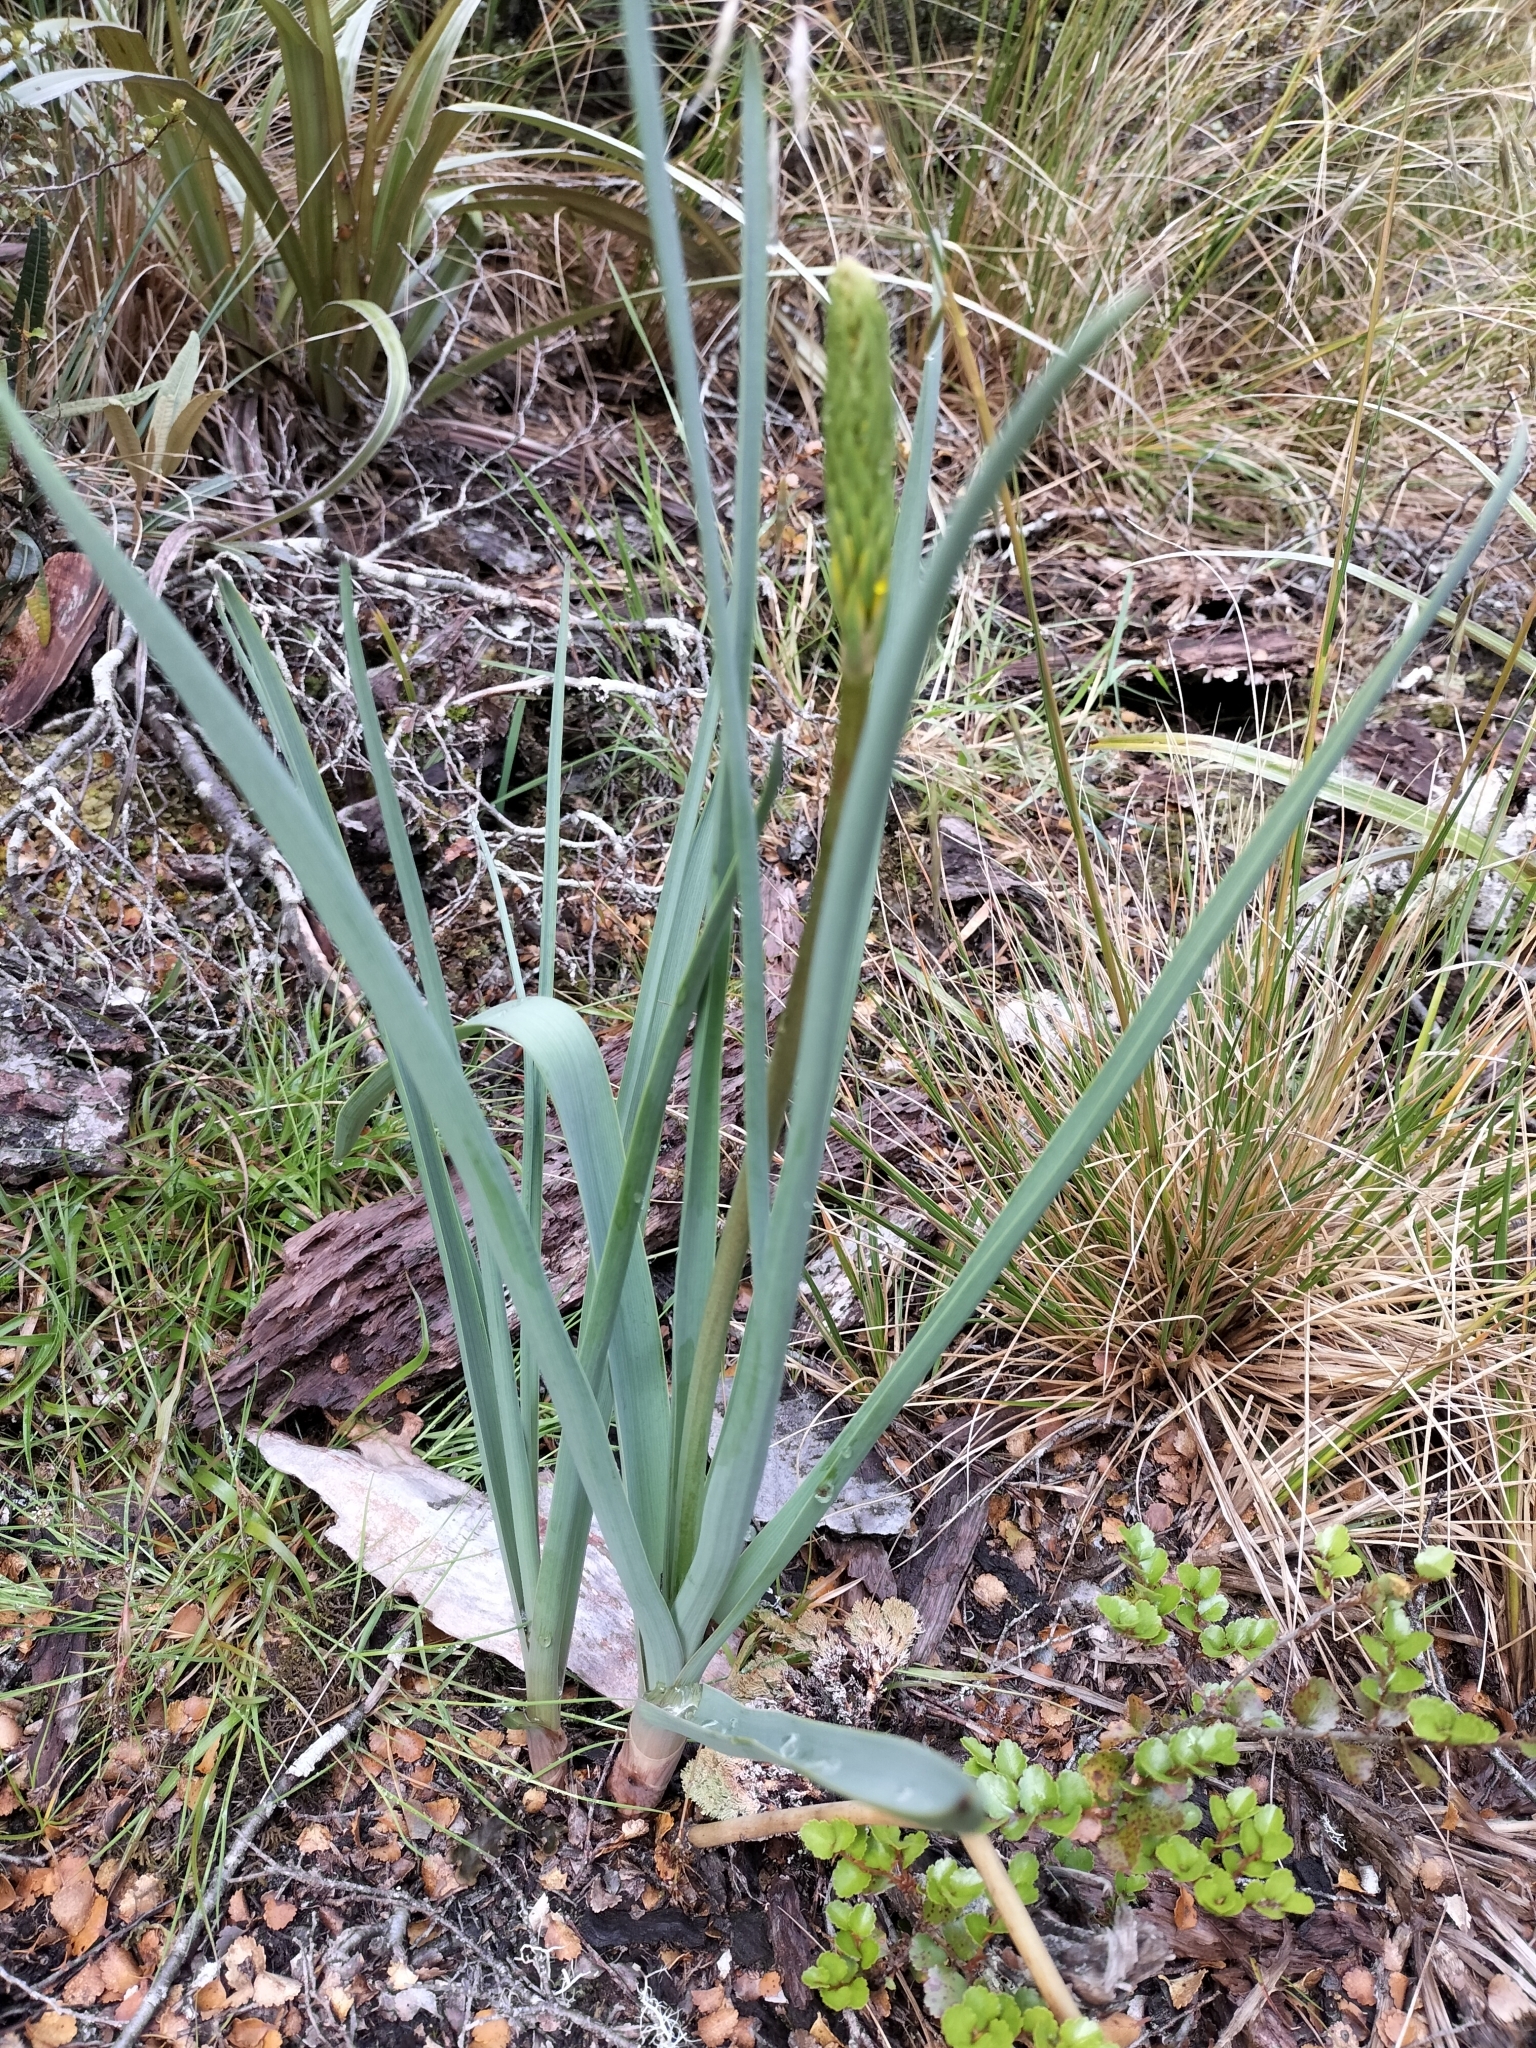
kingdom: Plantae
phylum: Tracheophyta
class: Liliopsida
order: Asparagales
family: Asphodelaceae
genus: Bulbinella
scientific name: Bulbinella hookeri
